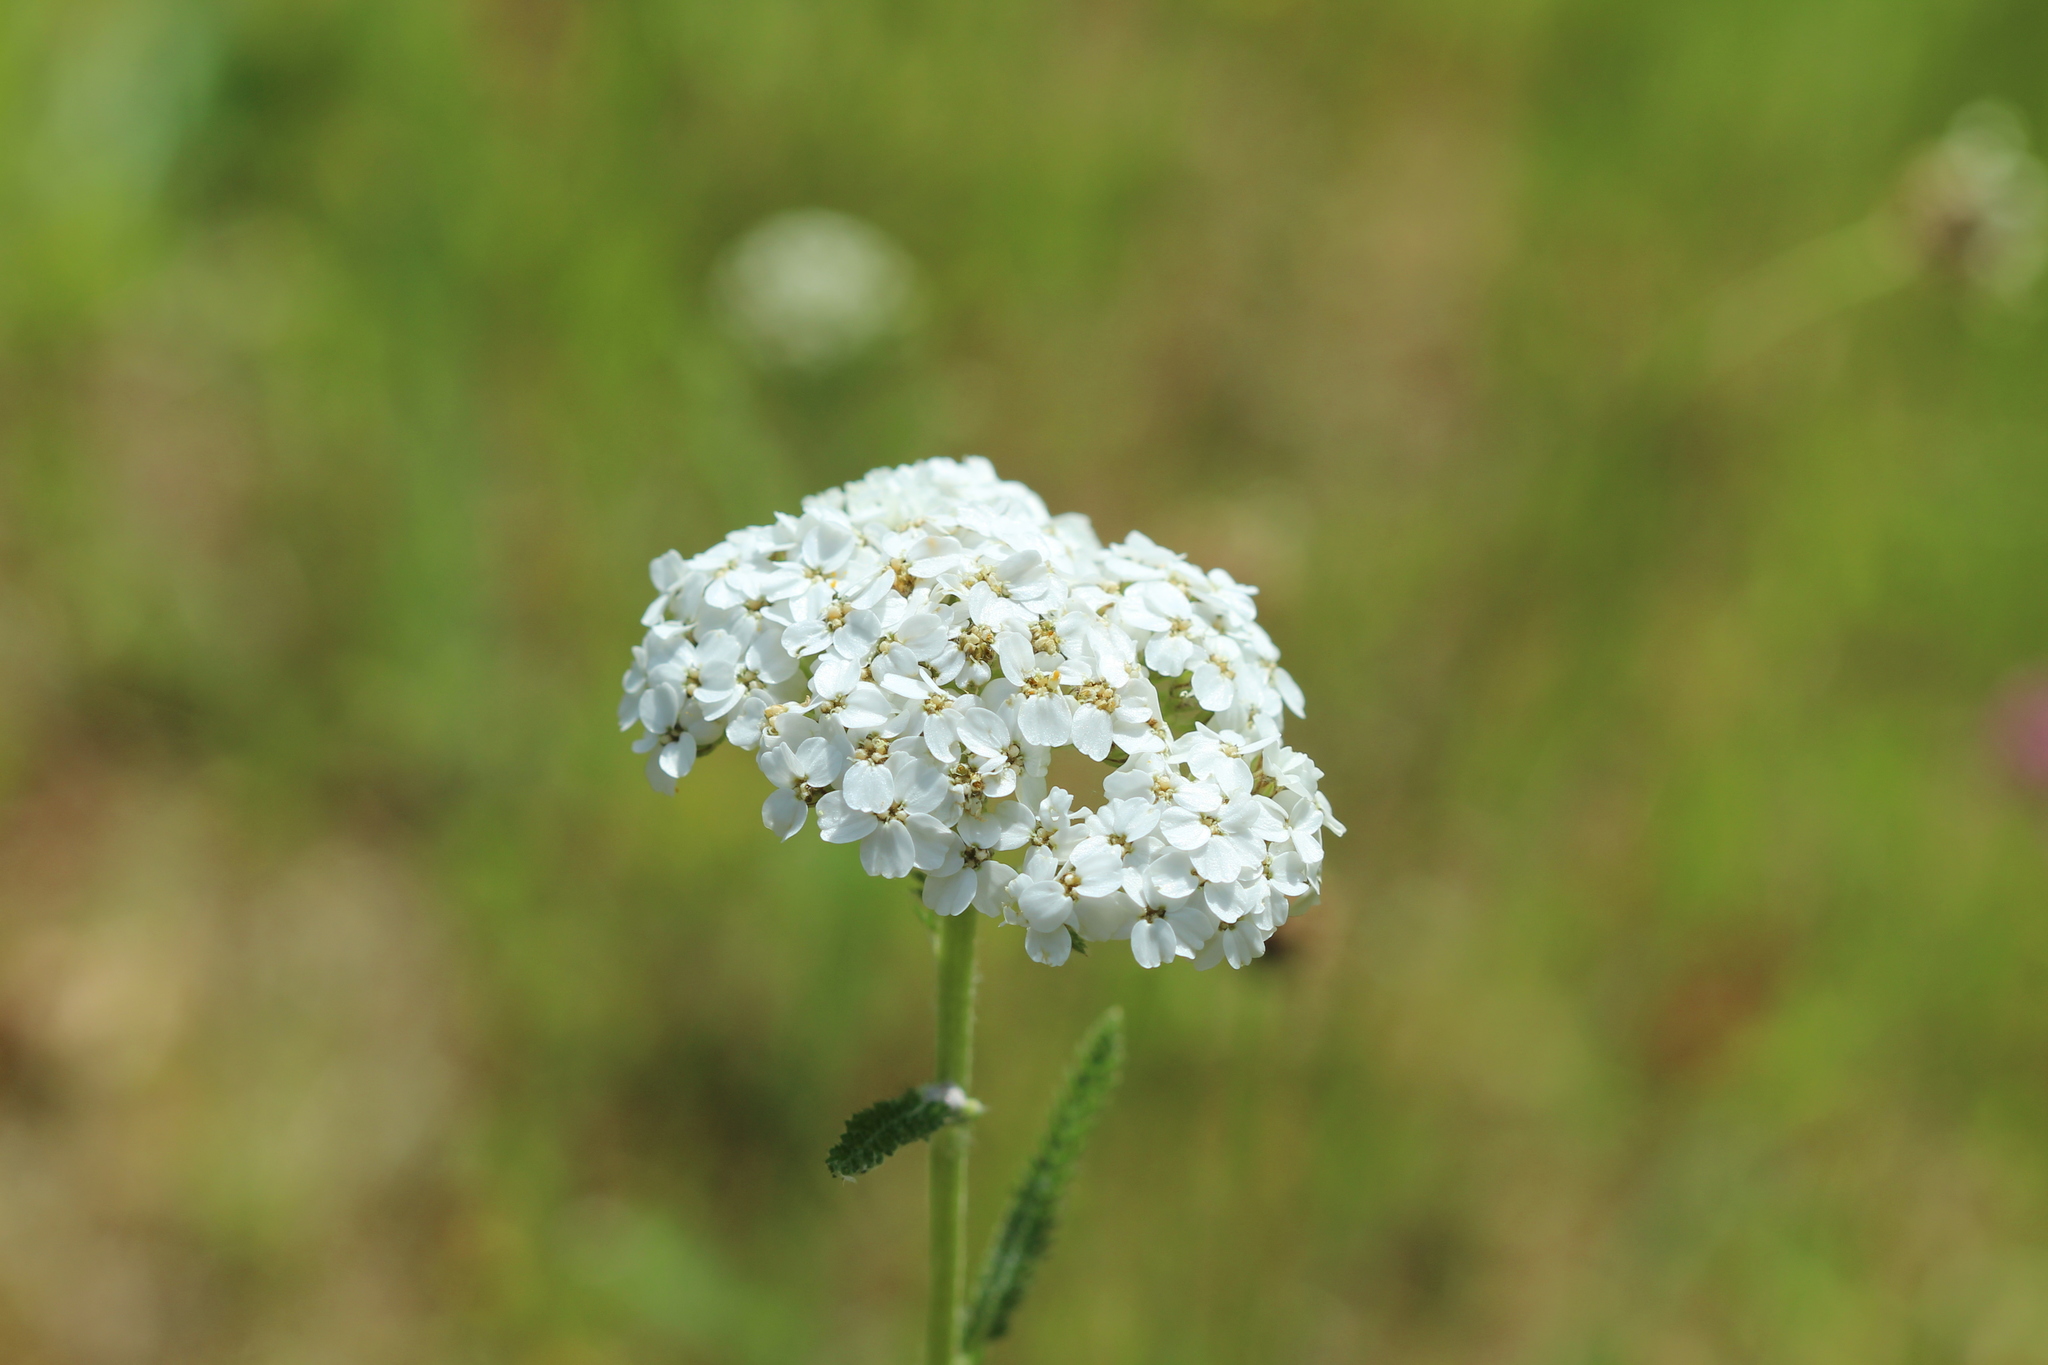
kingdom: Plantae
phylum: Tracheophyta
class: Magnoliopsida
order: Asterales
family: Asteraceae
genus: Achillea
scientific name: Achillea millefolium
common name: Yarrow
